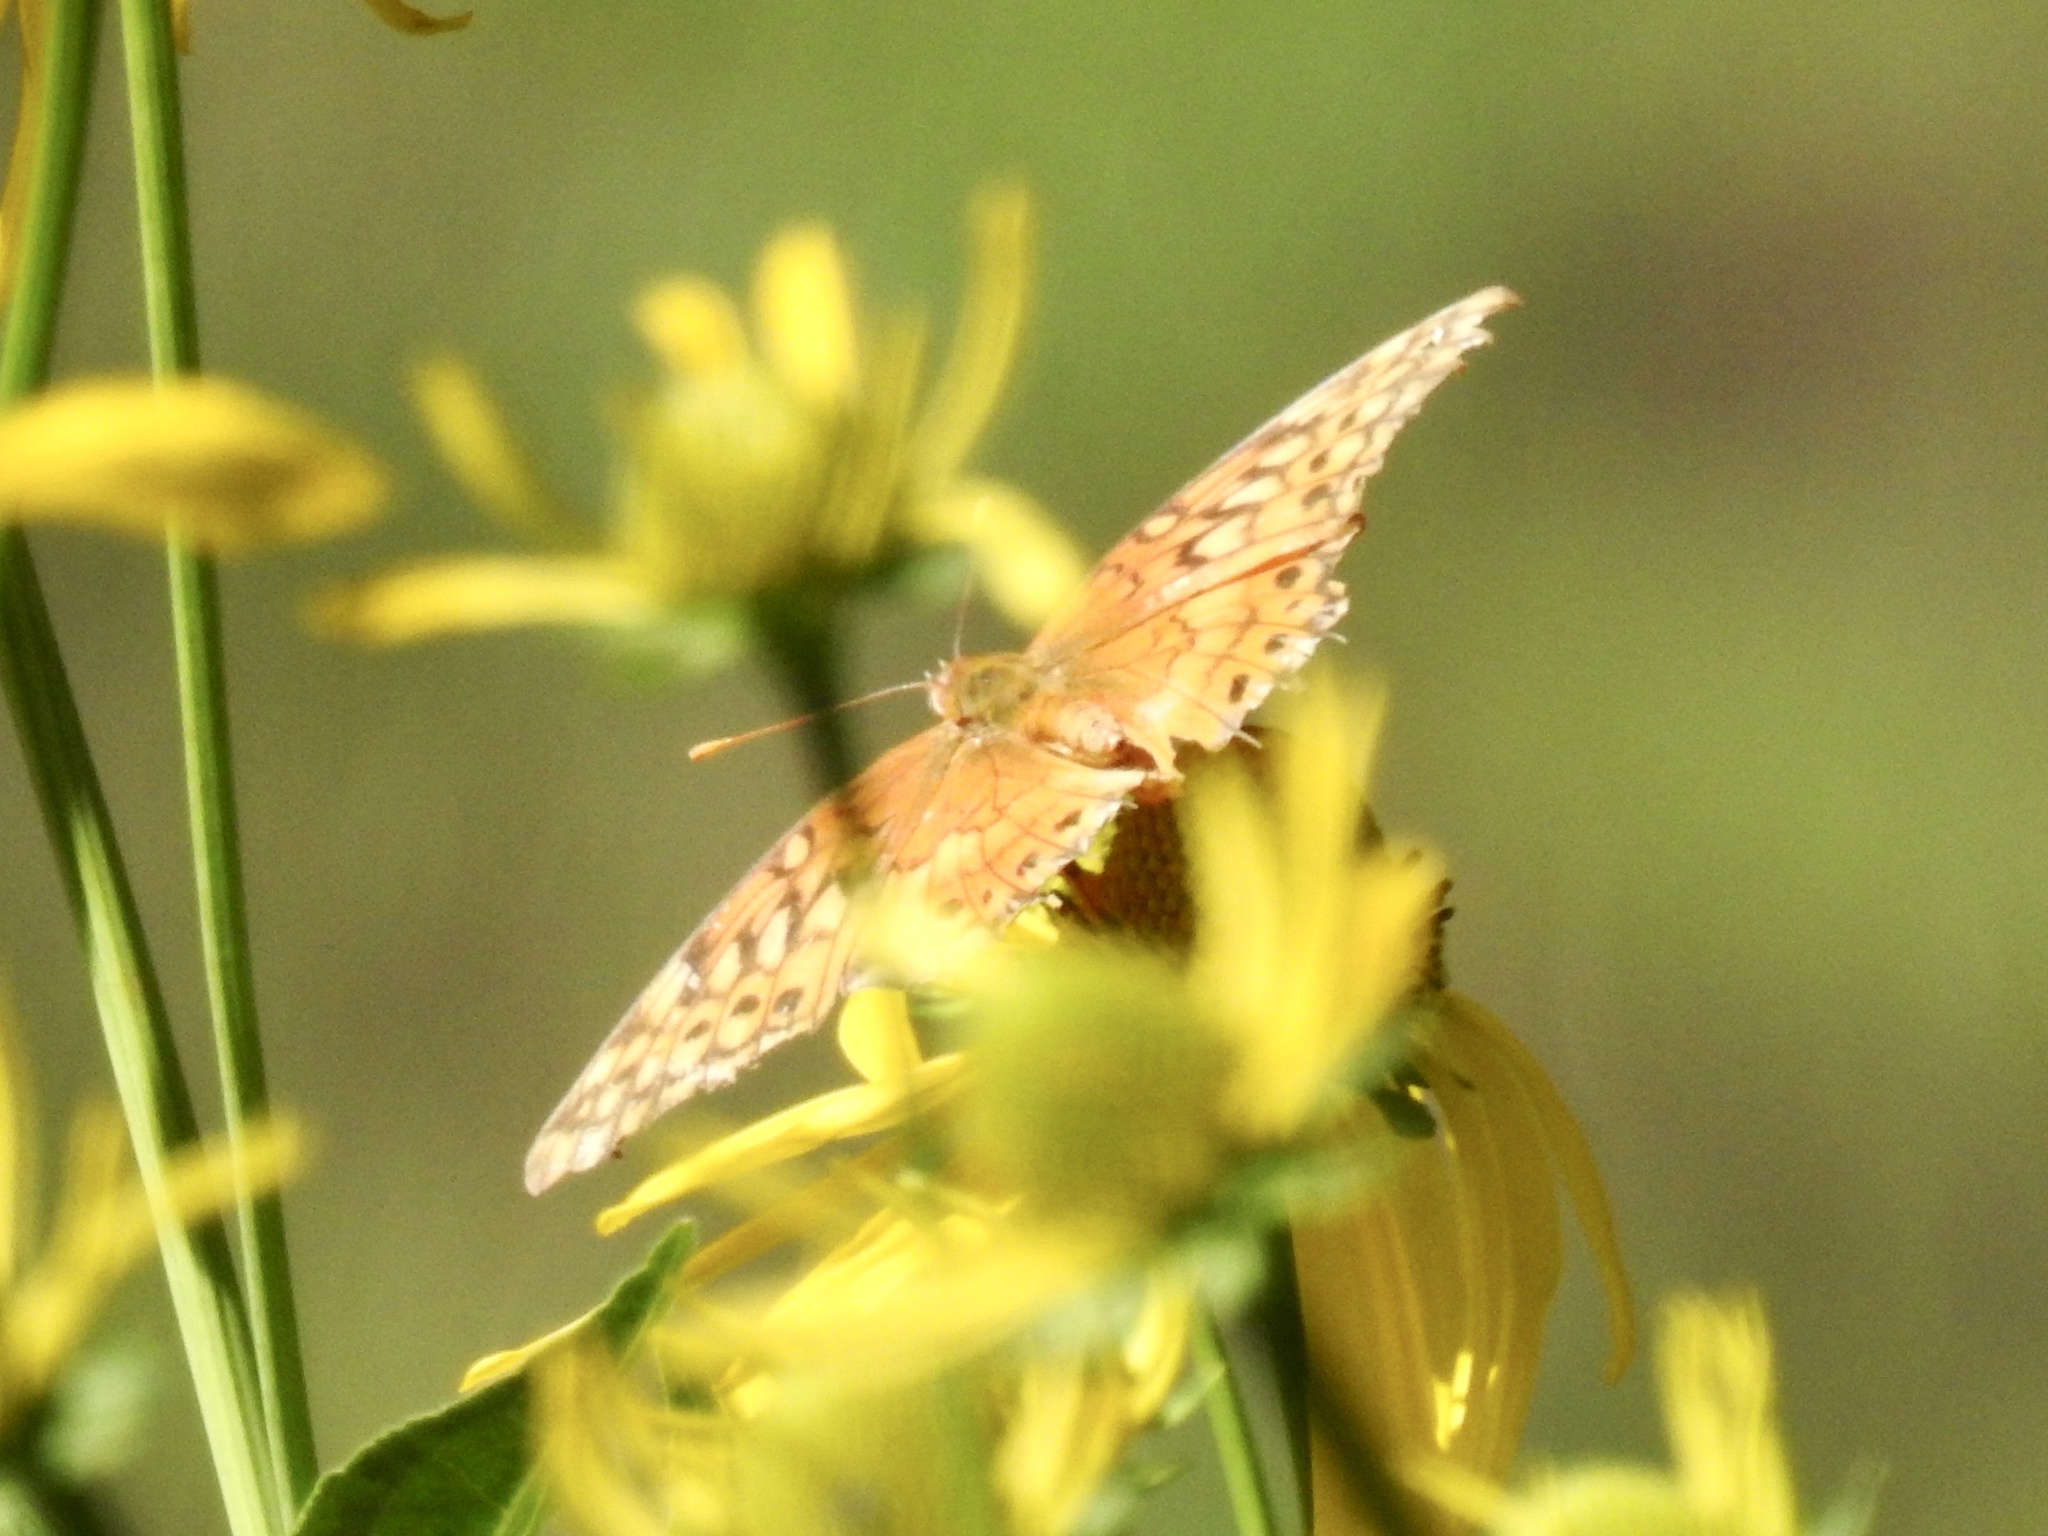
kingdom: Animalia
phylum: Arthropoda
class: Insecta
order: Lepidoptera
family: Nymphalidae
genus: Euptoieta
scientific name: Euptoieta claudia
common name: Variegated fritillary
